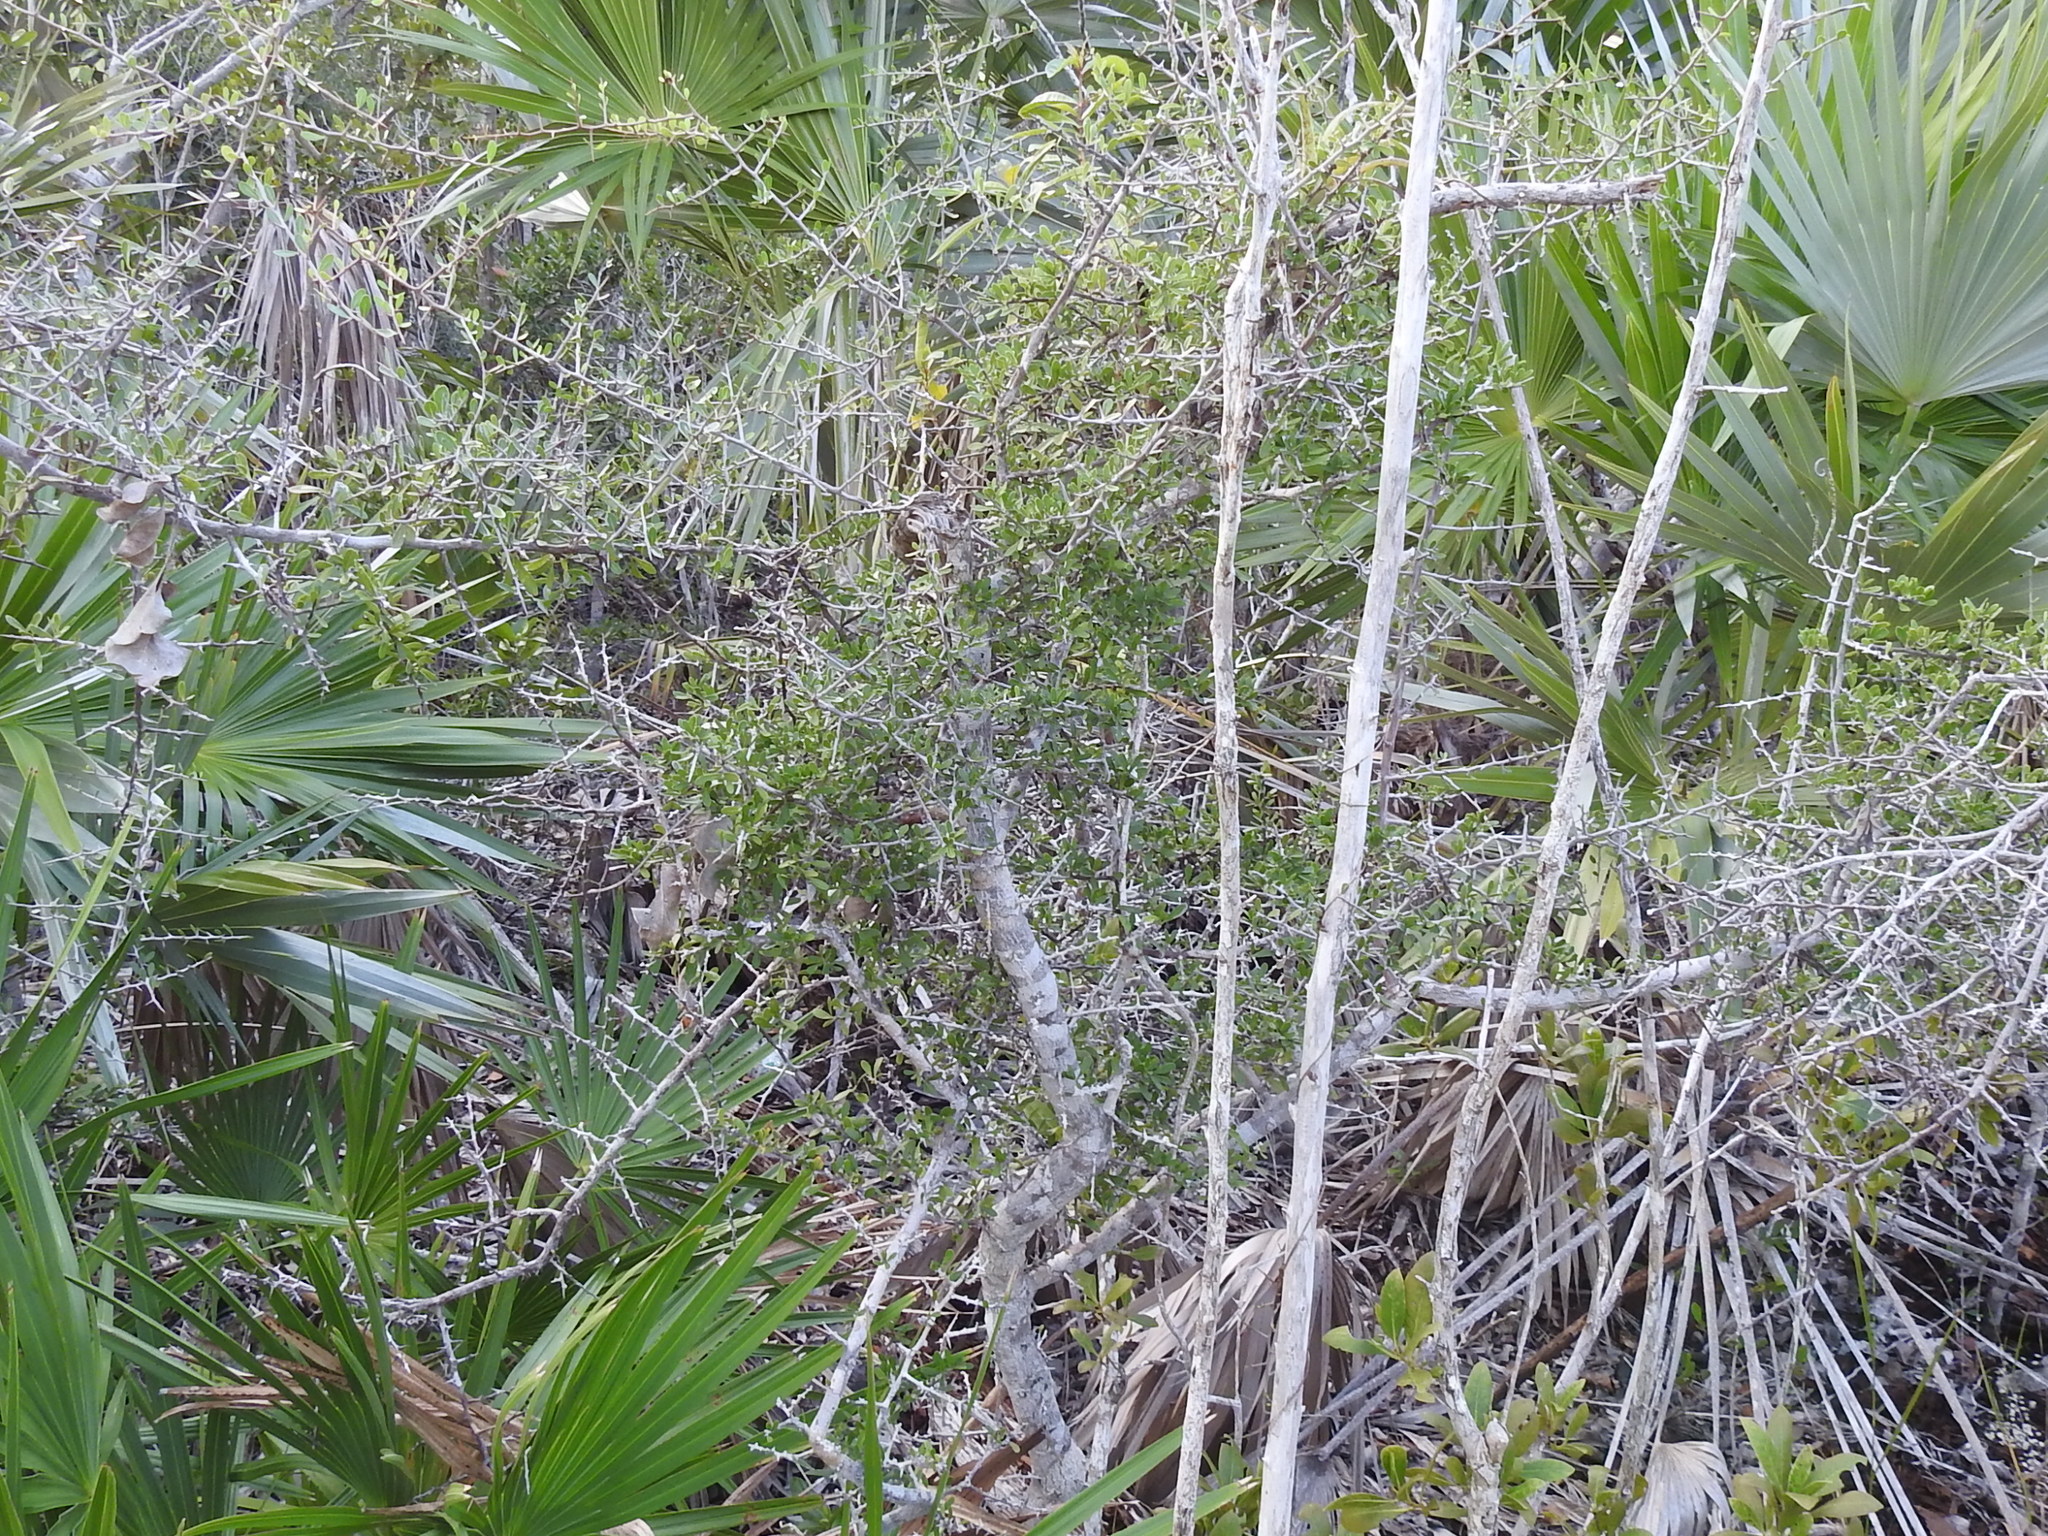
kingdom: Plantae
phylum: Tracheophyta
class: Magnoliopsida
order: Ericales
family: Sapotaceae
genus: Sideroxylon
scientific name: Sideroxylon celastrinum
